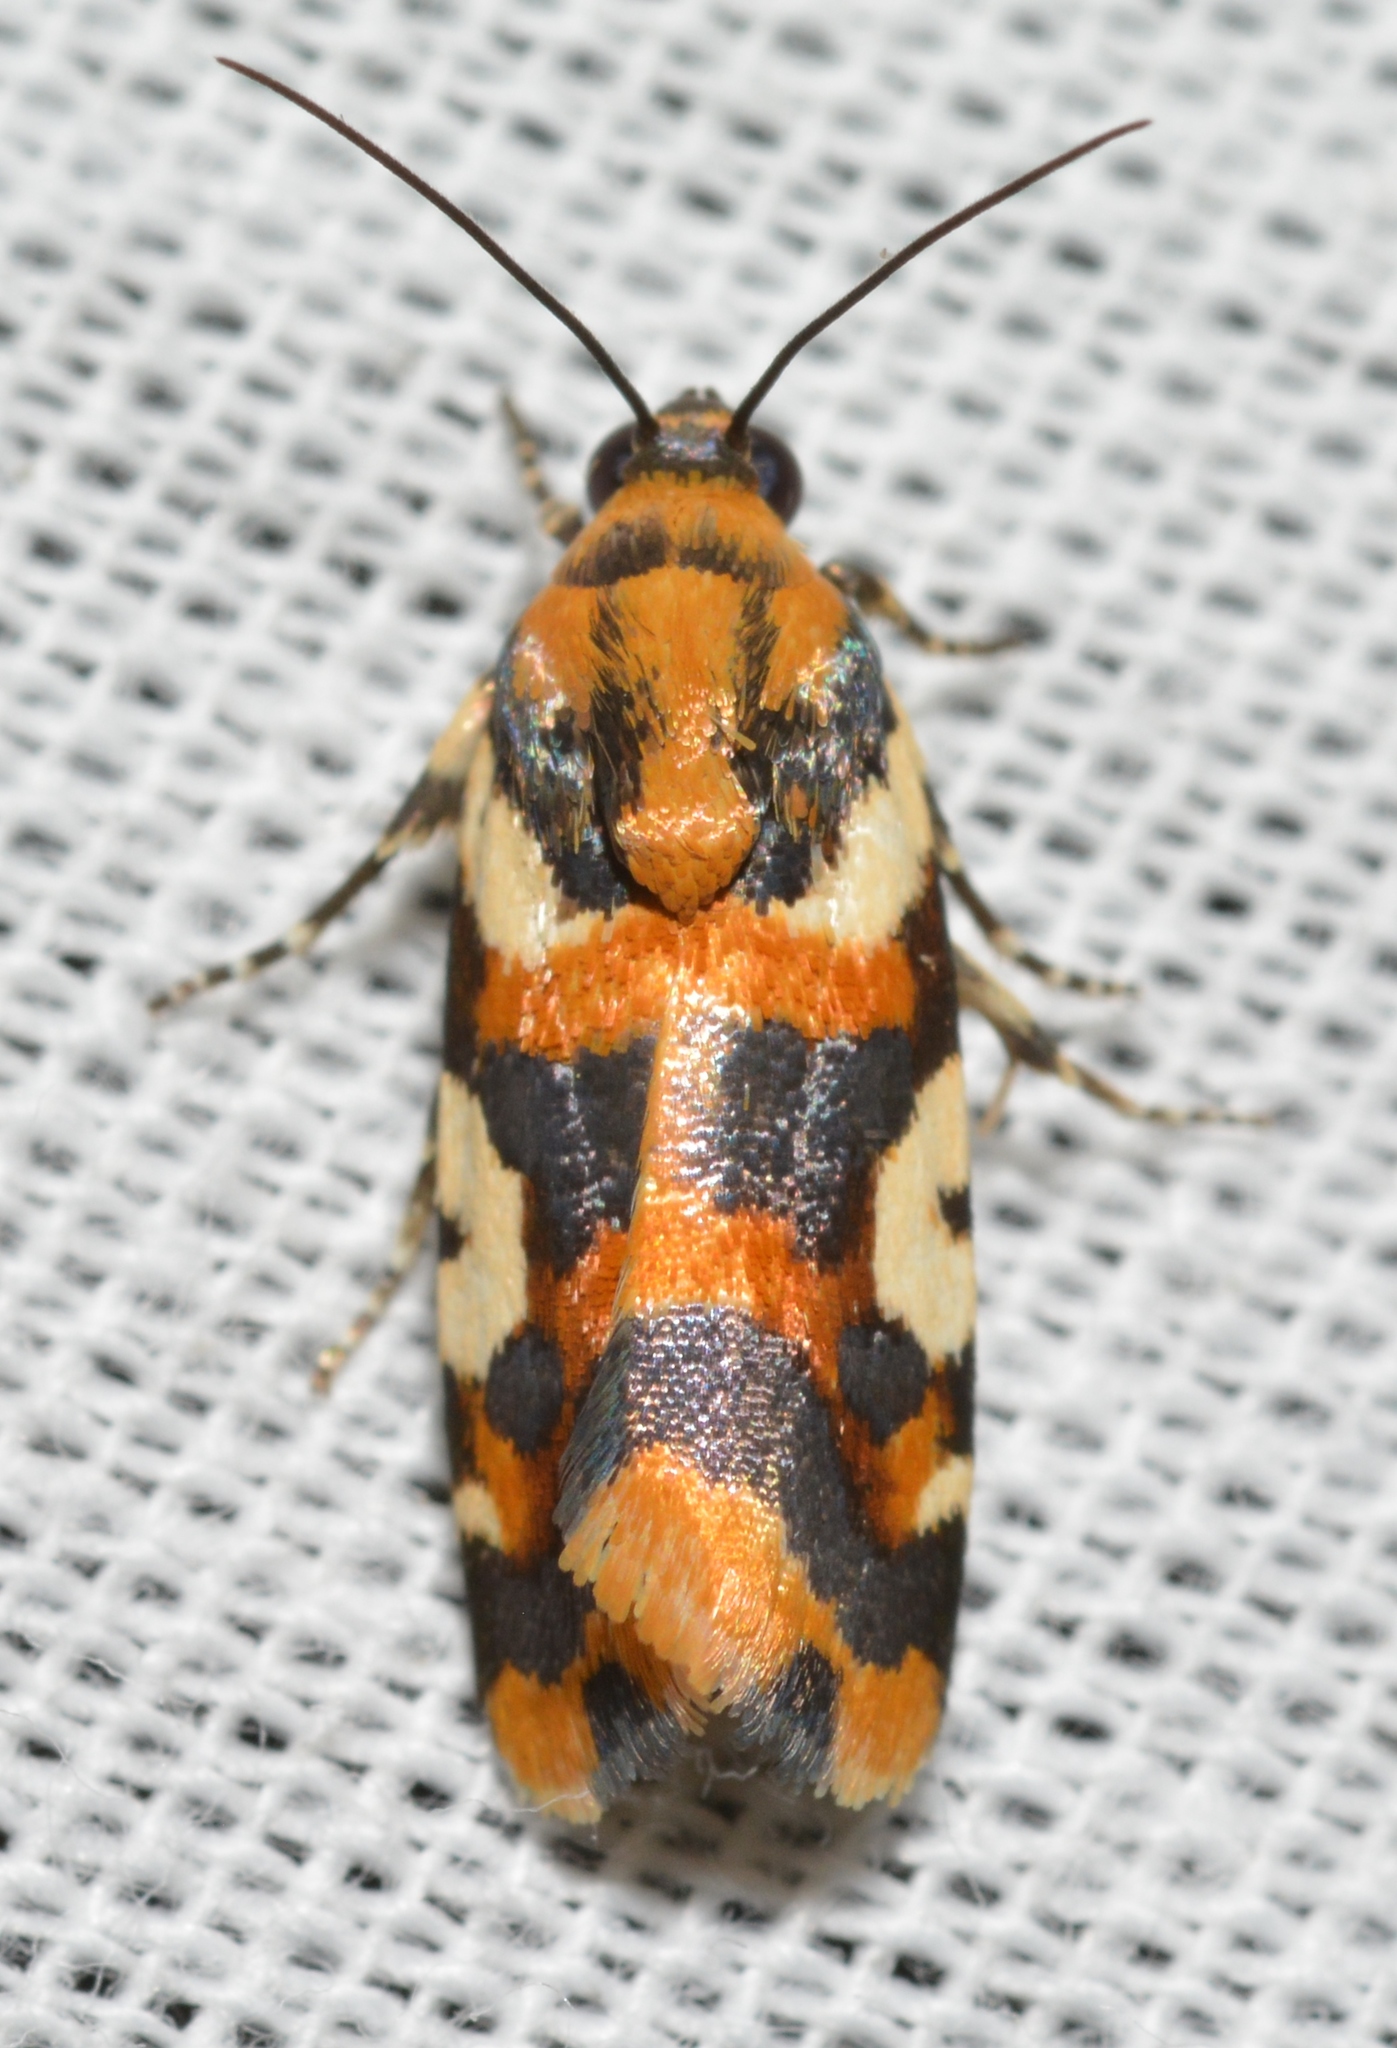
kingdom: Animalia
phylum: Arthropoda
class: Insecta
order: Lepidoptera
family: Noctuidae
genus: Acontia
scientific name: Acontia dama
